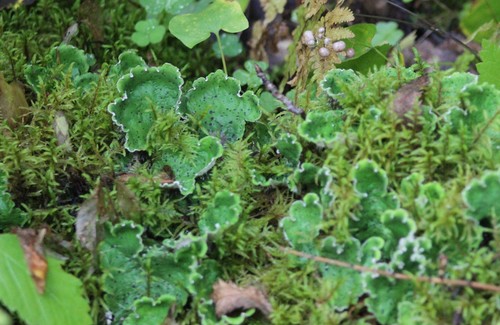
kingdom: Fungi
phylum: Ascomycota
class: Lecanoromycetes
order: Peltigerales
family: Peltigeraceae
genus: Peltigera
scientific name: Peltigera aphthosa
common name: Common freckle pelt lichen
